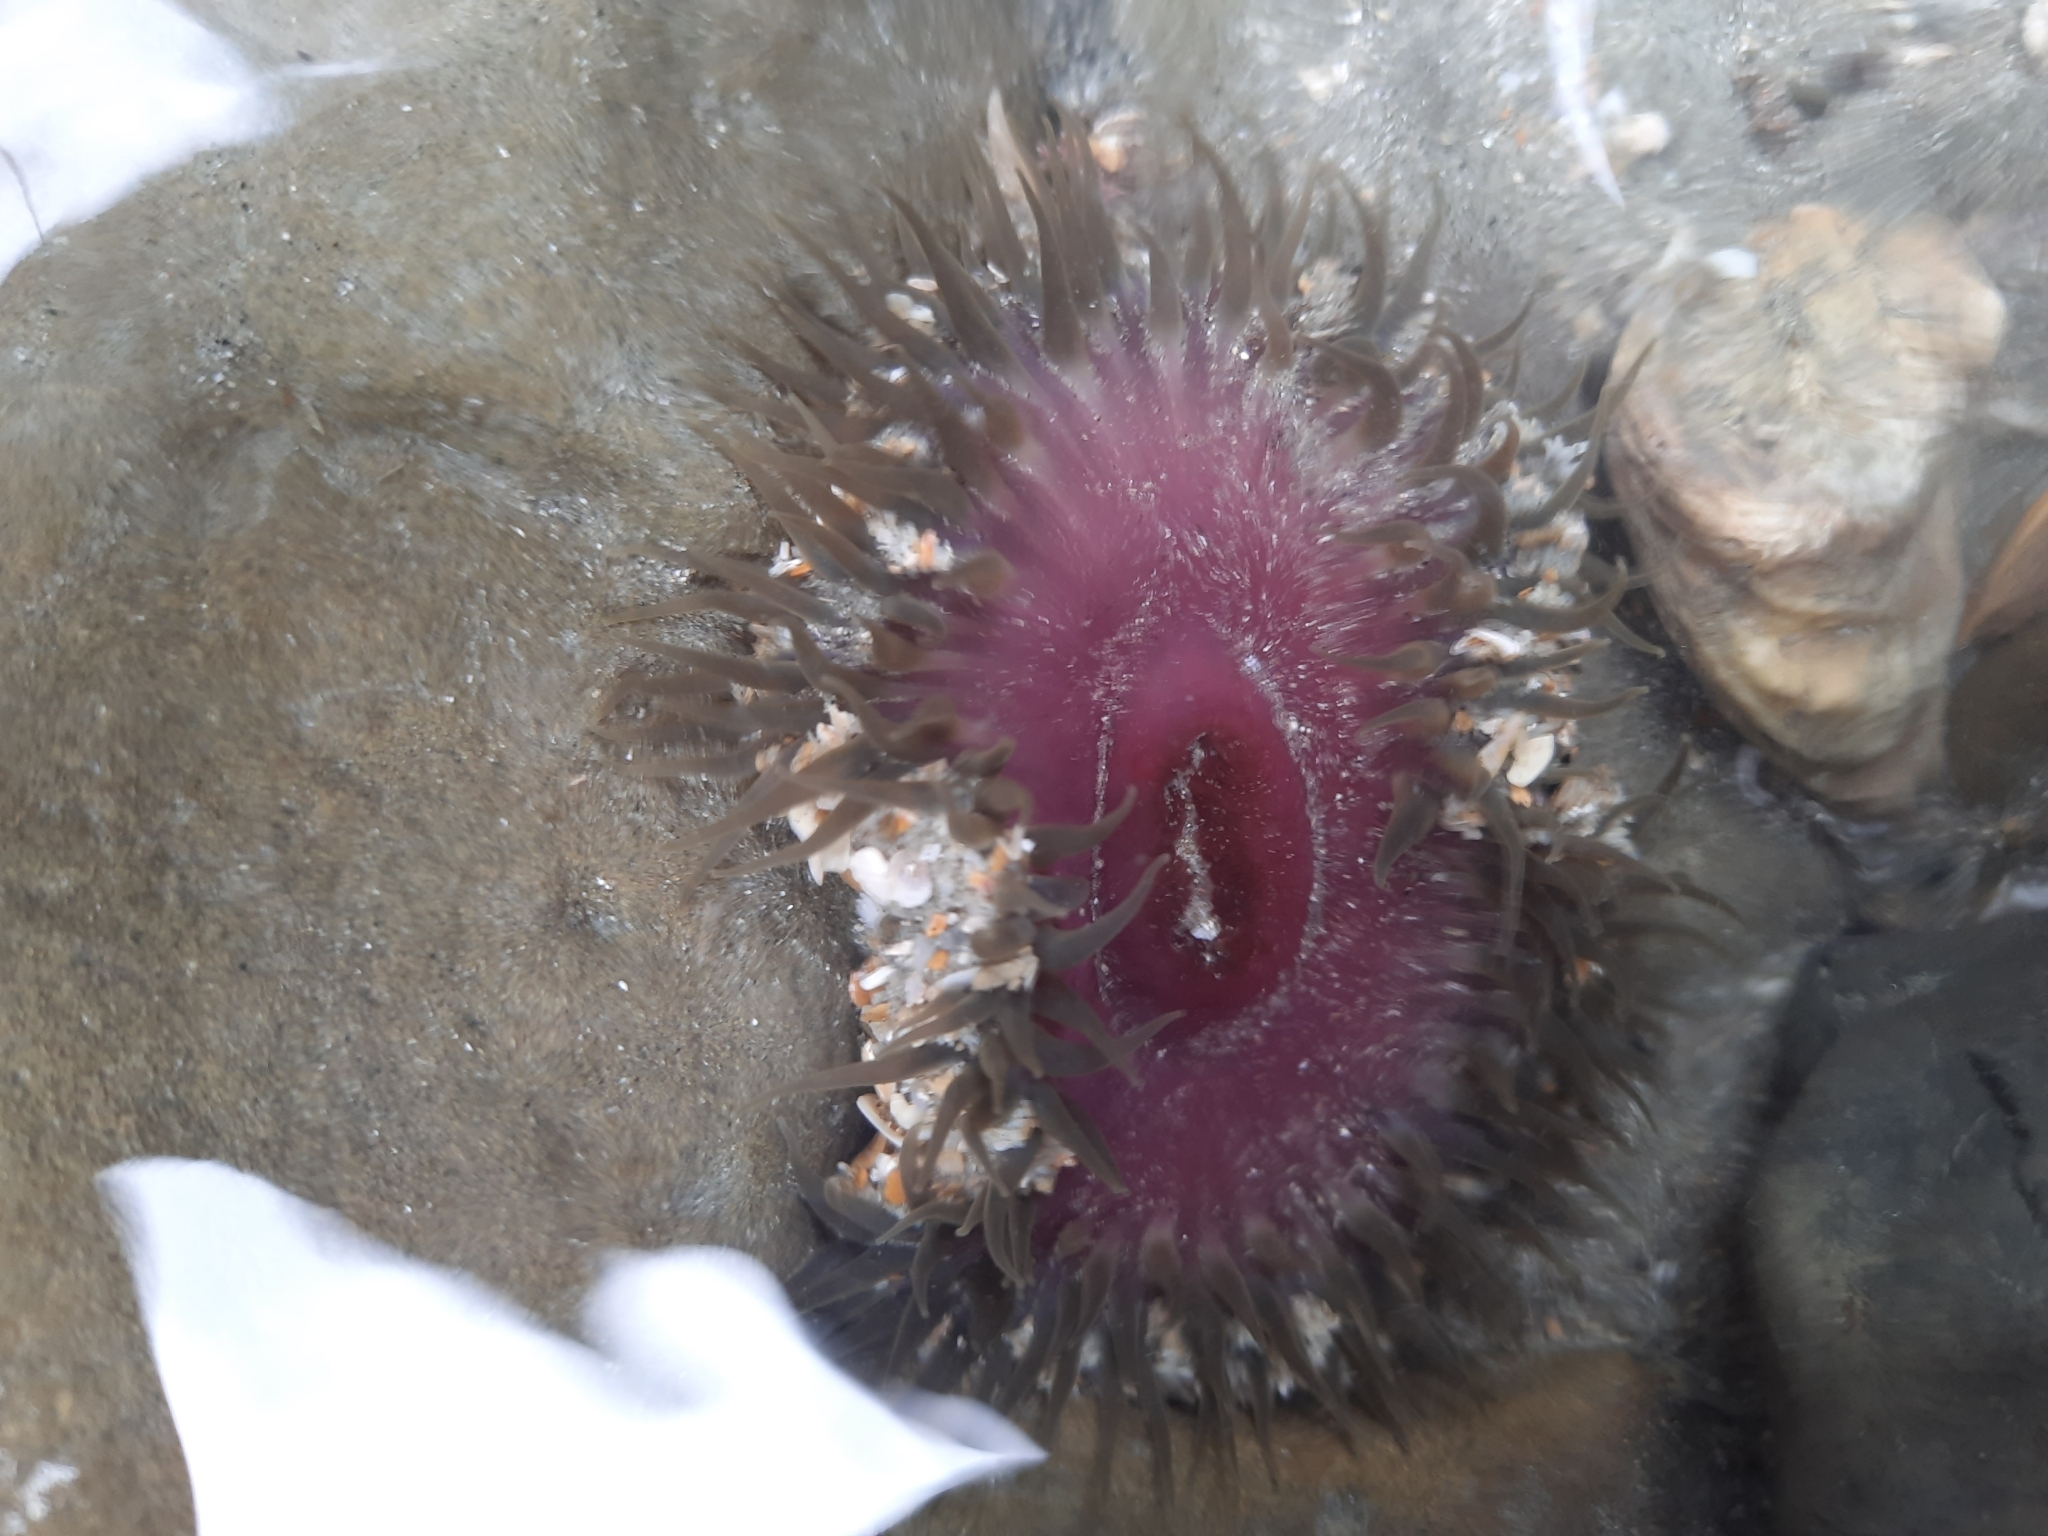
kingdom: Animalia
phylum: Cnidaria
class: Anthozoa
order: Actiniaria
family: Actiniidae
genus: Oulactis
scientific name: Oulactis magna
